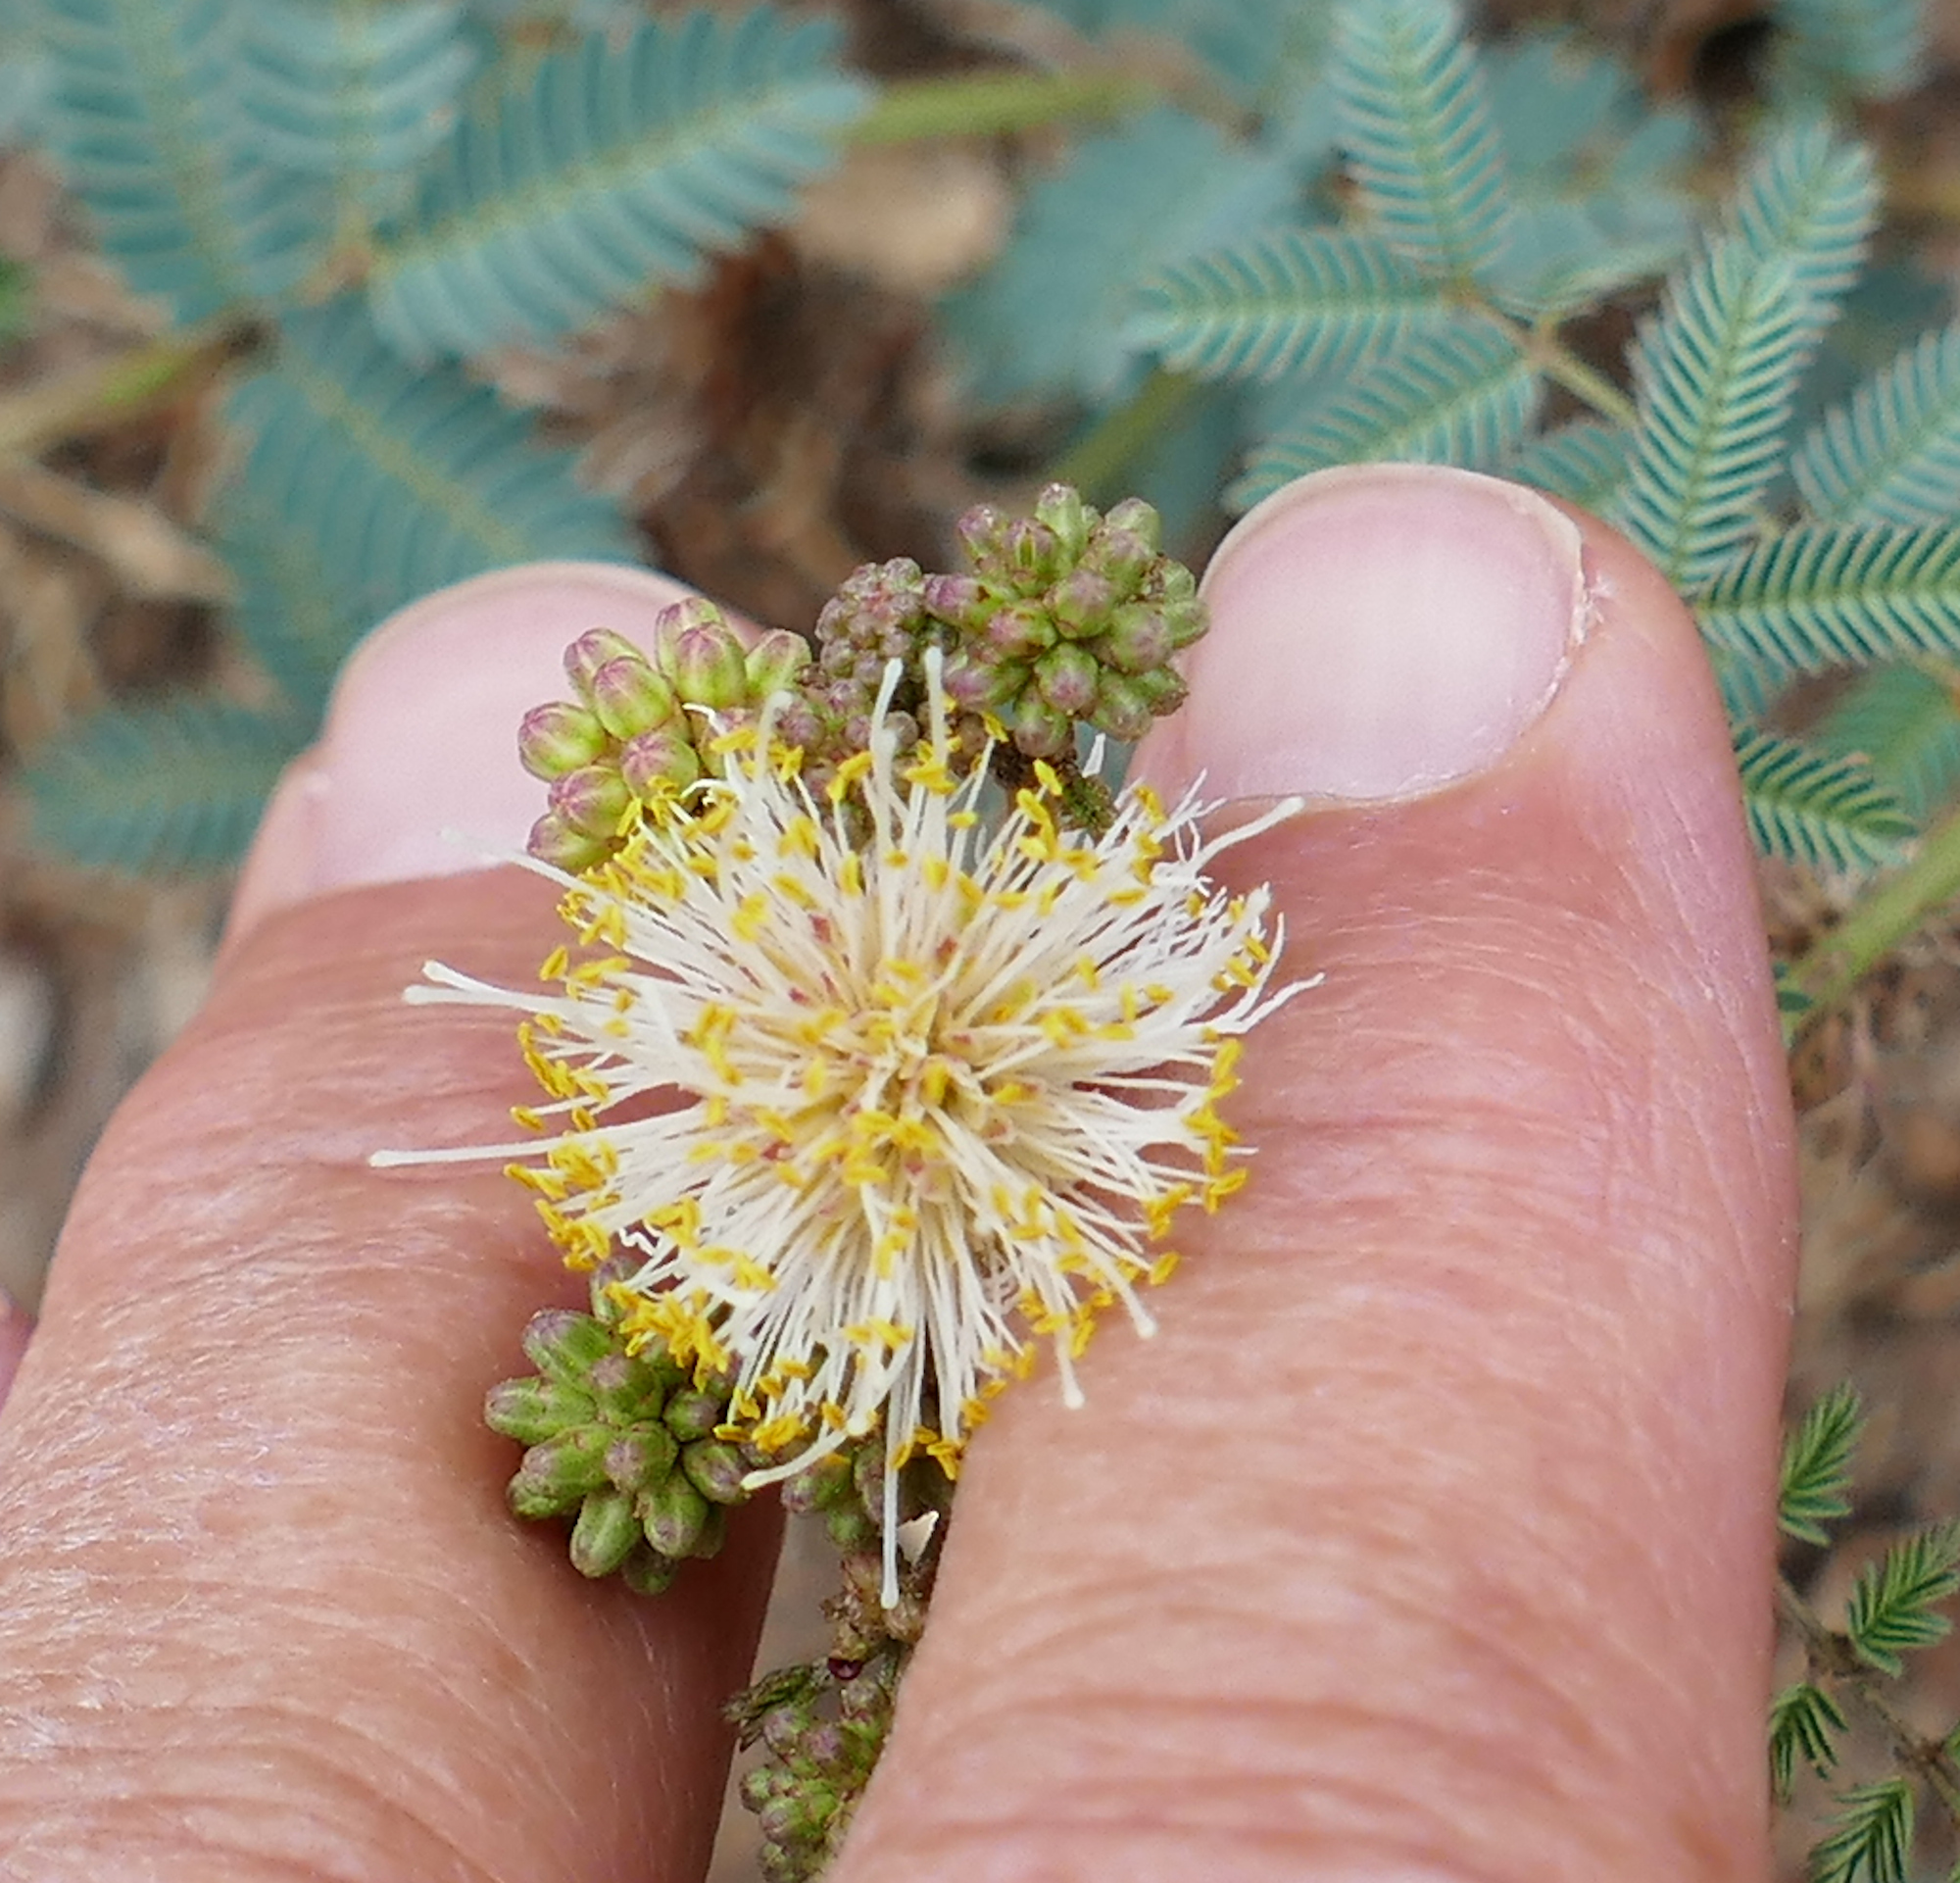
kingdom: Plantae
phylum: Tracheophyta
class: Magnoliopsida
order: Fabales
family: Fabaceae
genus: Desmanthus
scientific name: Desmanthus cooleyi
